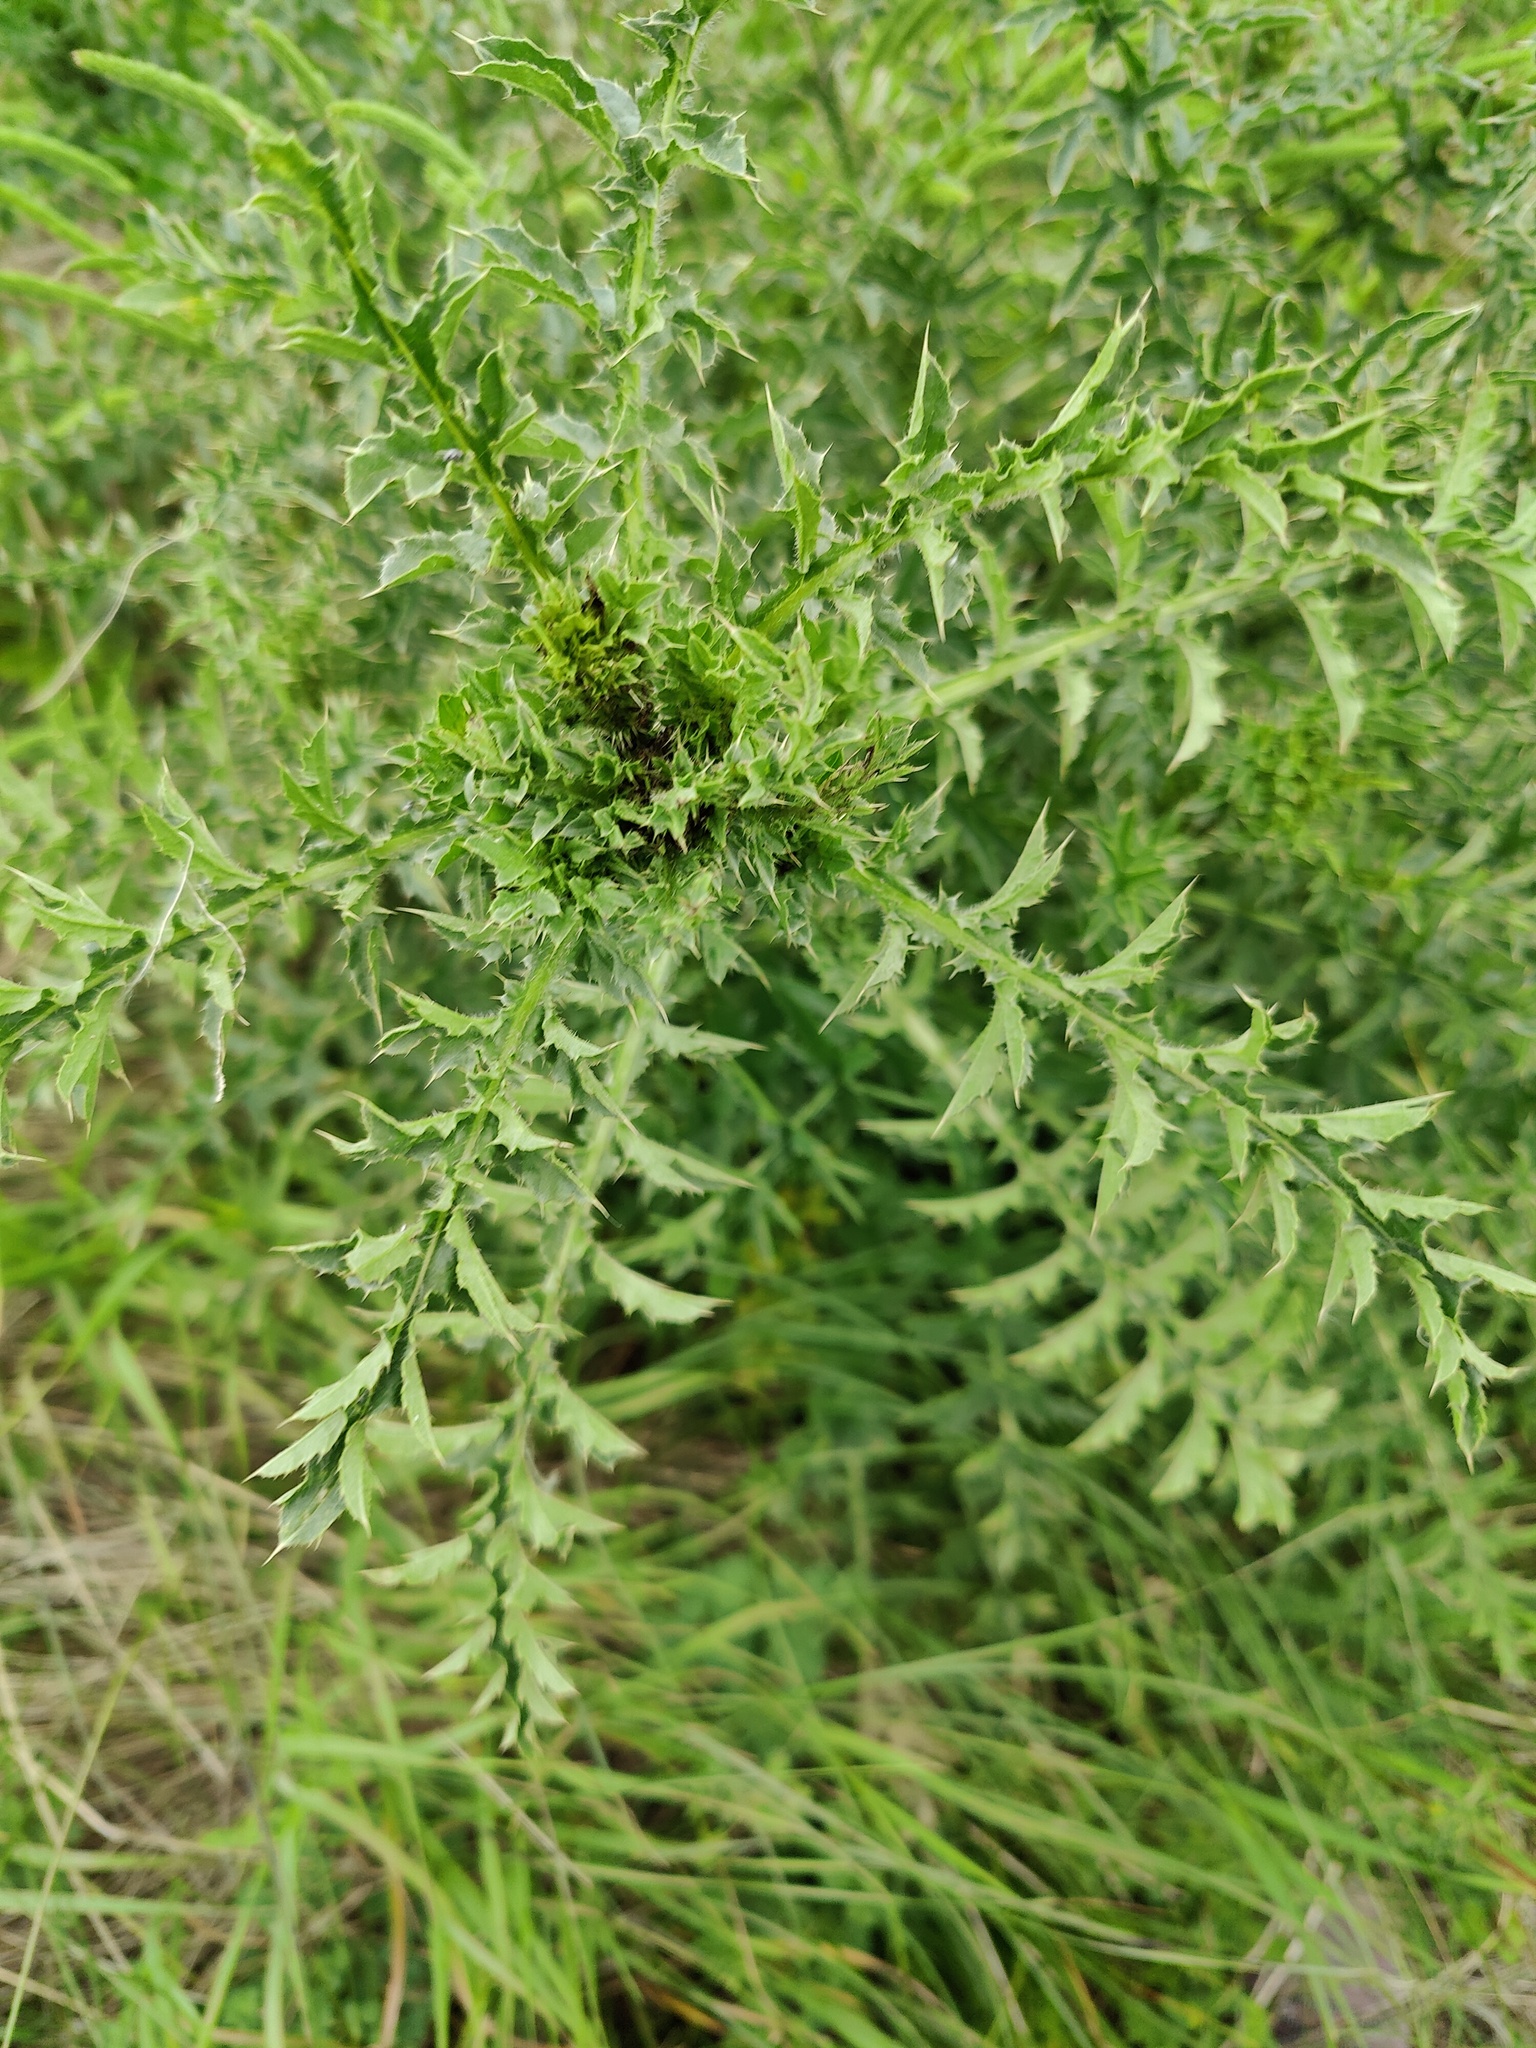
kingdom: Plantae
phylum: Tracheophyta
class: Magnoliopsida
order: Asterales
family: Asteraceae
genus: Carduus
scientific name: Carduus acanthoides
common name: Plumeless thistle
